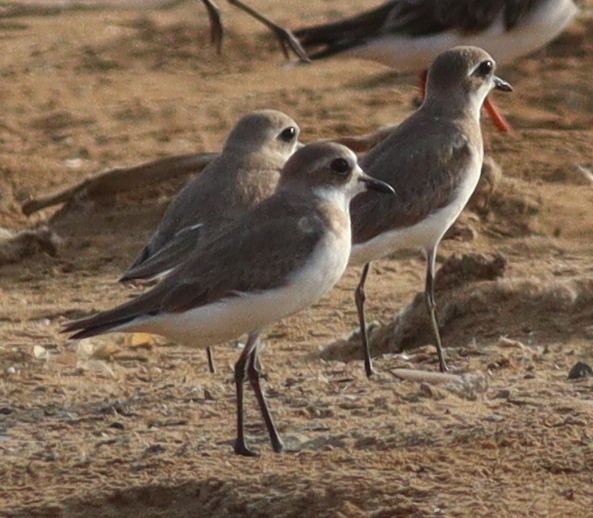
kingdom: Animalia
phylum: Chordata
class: Aves
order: Charadriiformes
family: Charadriidae
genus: Anarhynchus
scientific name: Anarhynchus
